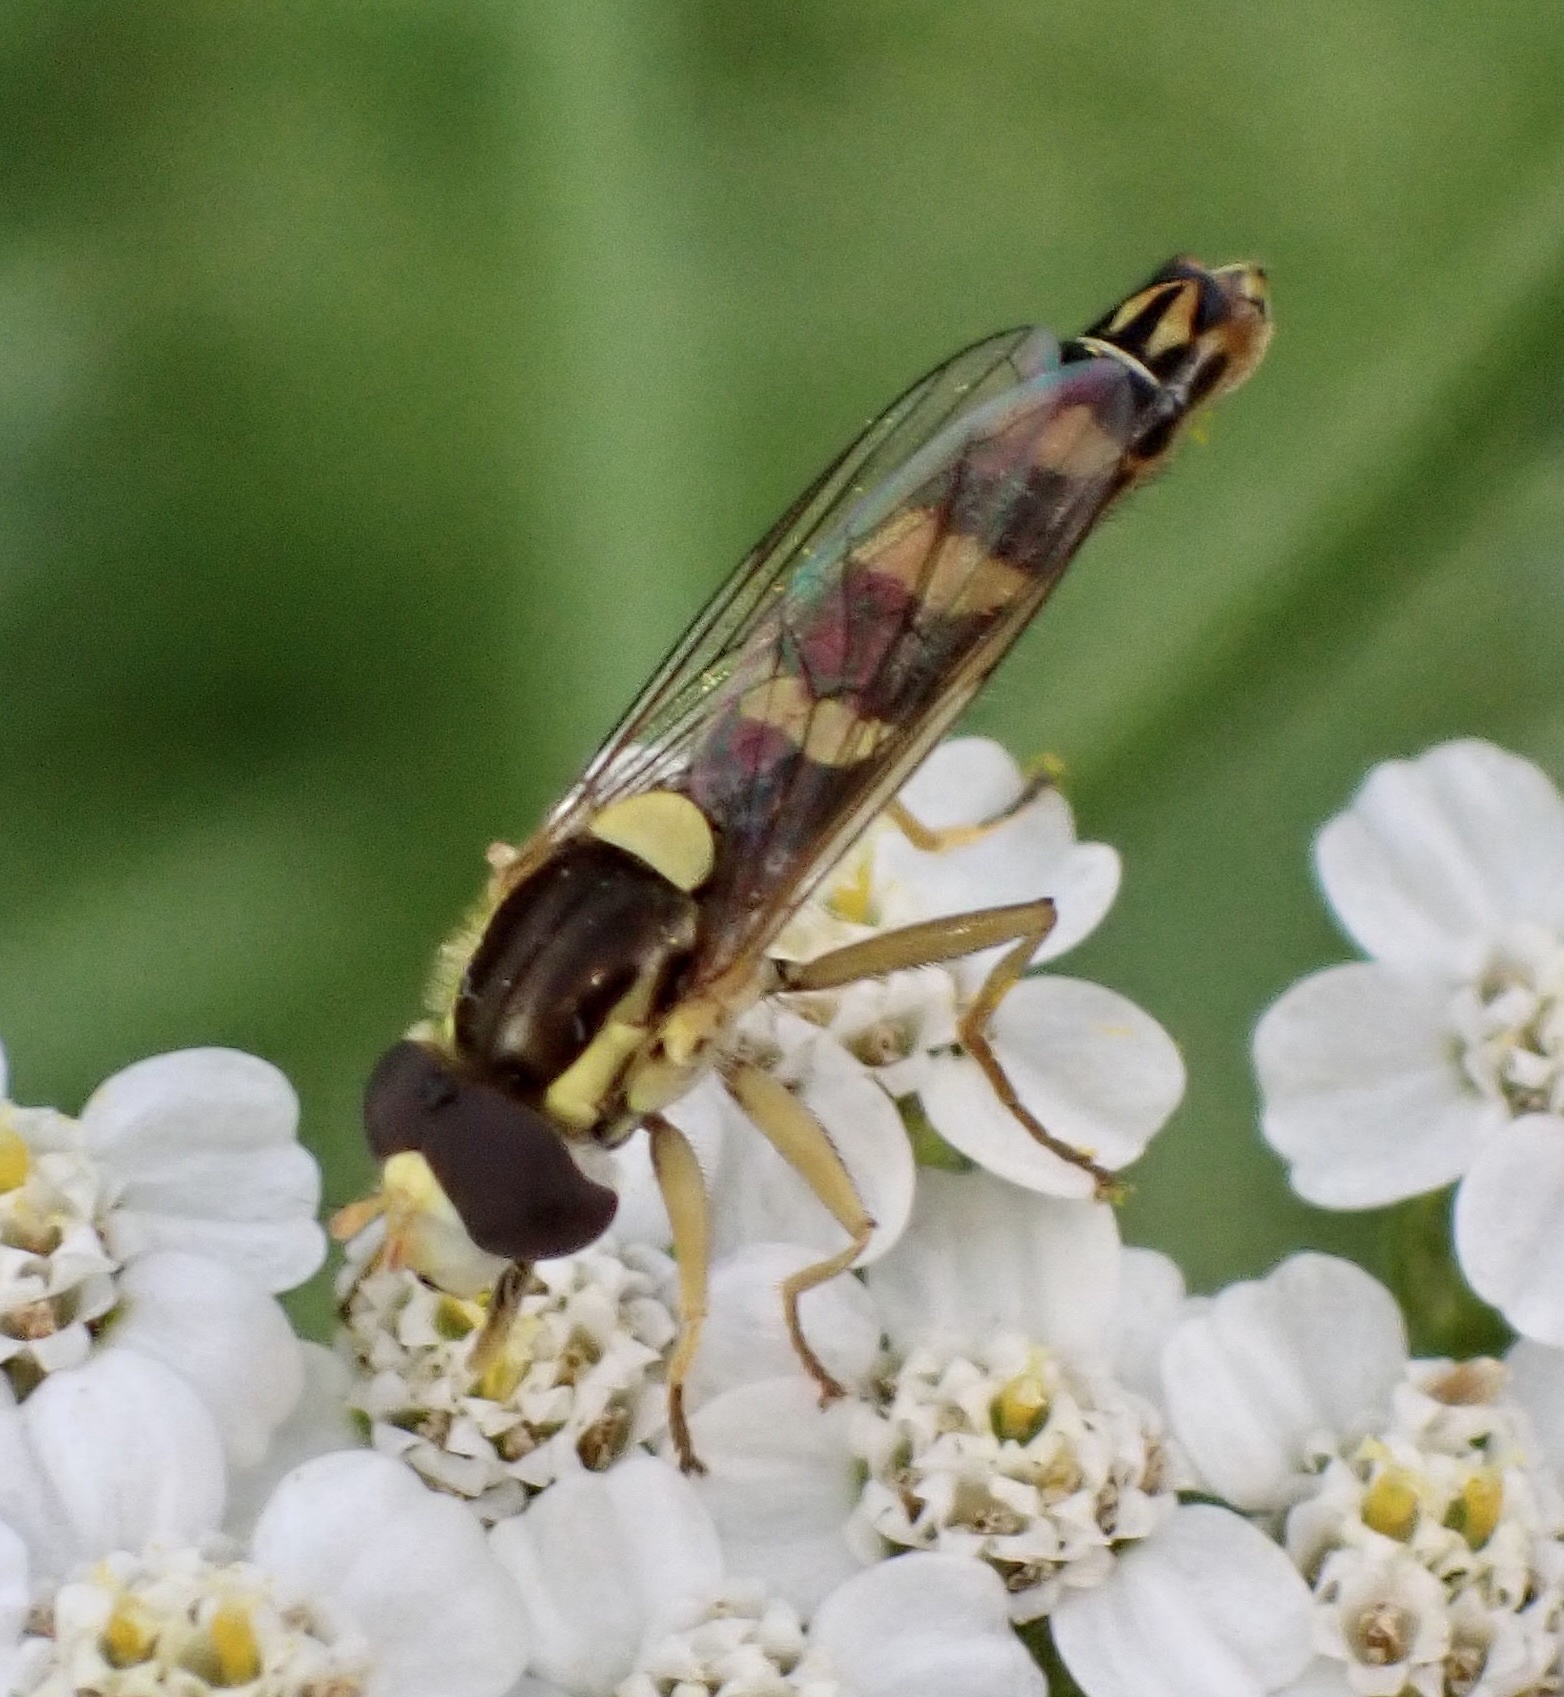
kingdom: Animalia
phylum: Arthropoda
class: Insecta
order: Diptera
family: Syrphidae
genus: Sphaerophoria
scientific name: Sphaerophoria scripta
